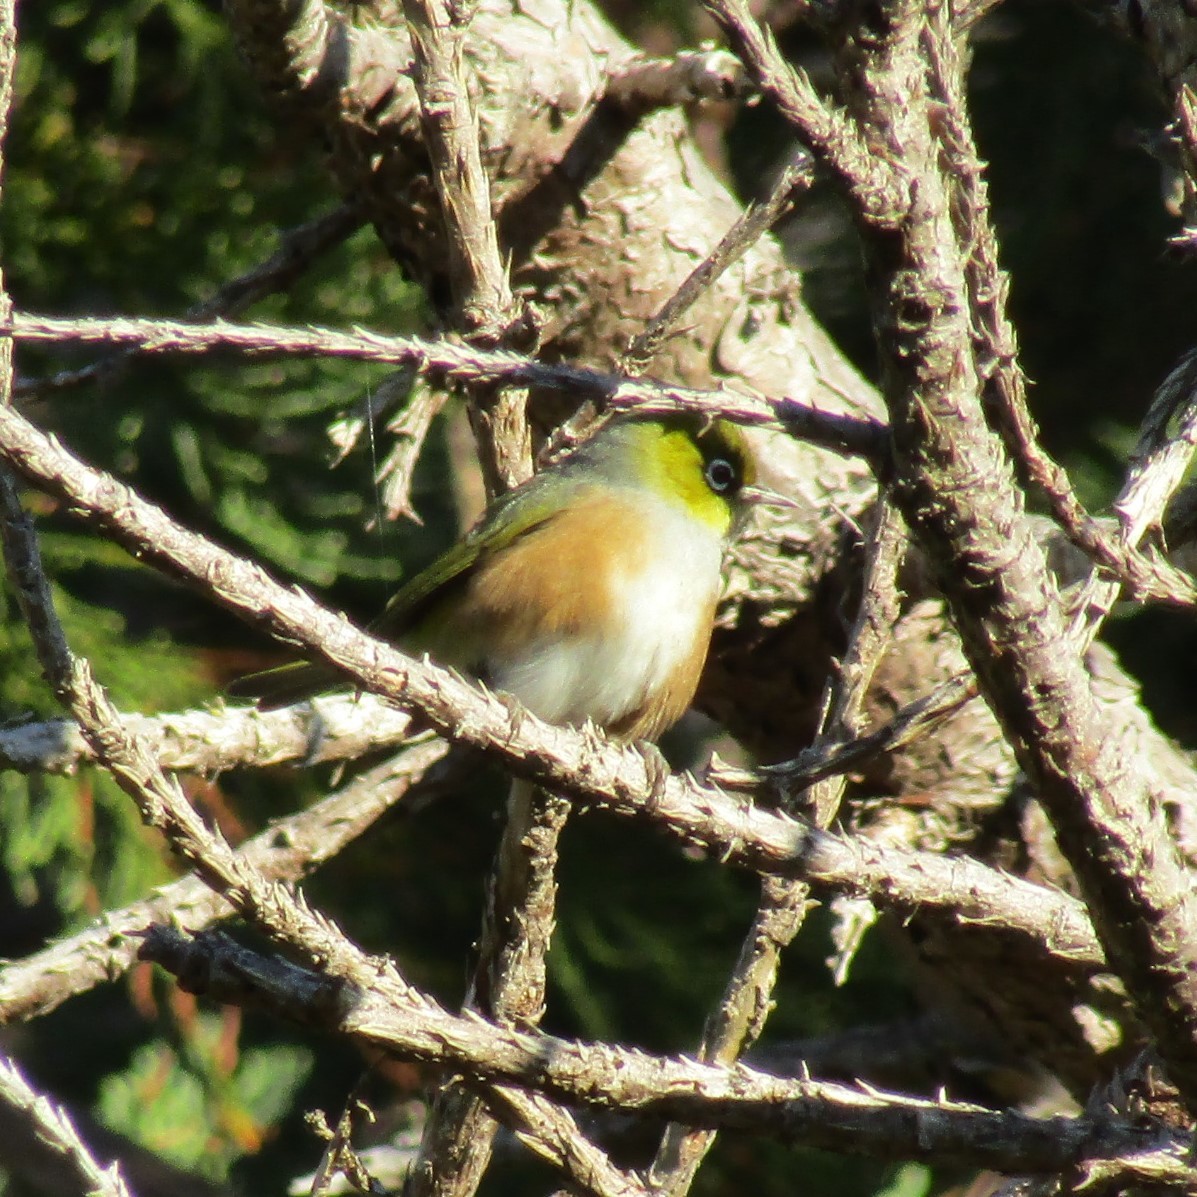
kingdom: Animalia
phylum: Chordata
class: Aves
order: Passeriformes
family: Zosteropidae
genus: Zosterops
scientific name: Zosterops lateralis
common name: Silvereye
